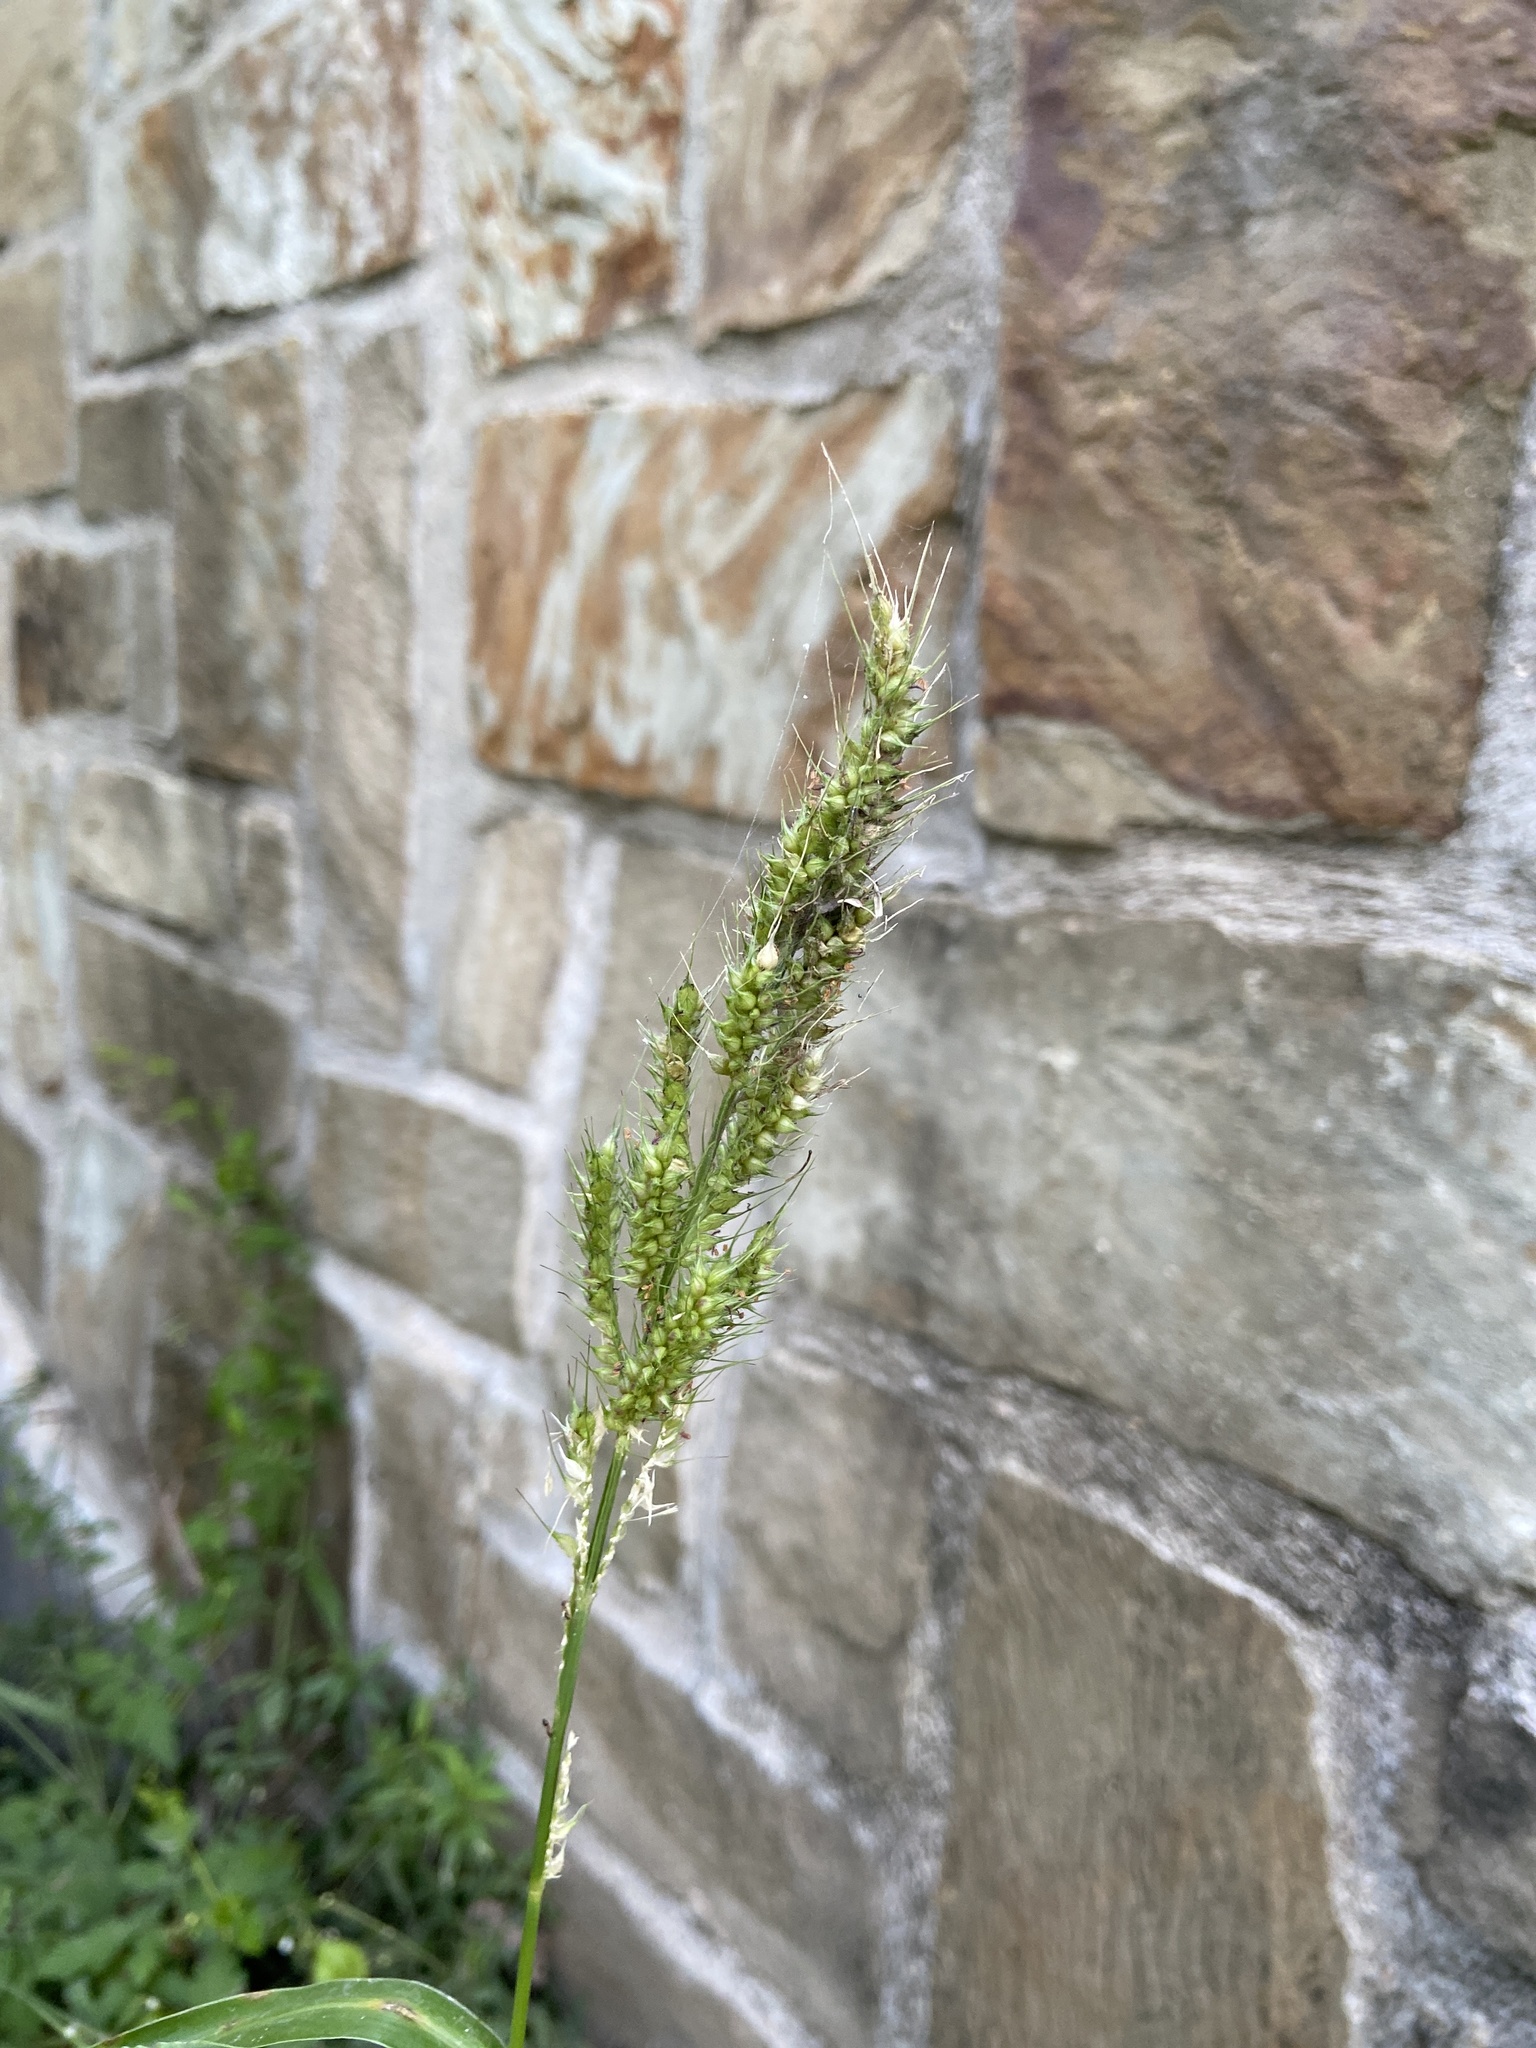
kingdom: Plantae
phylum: Tracheophyta
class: Liliopsida
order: Poales
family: Poaceae
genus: Echinochloa
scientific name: Echinochloa crus-galli
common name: Cockspur
